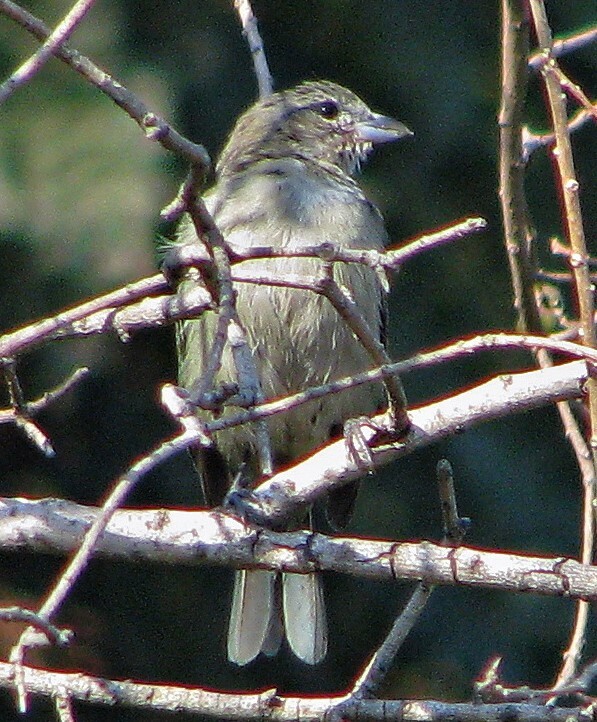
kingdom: Animalia
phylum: Chordata
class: Aves
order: Passeriformes
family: Thraupidae
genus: Thraupis
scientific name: Thraupis sayaca
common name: Sayaca tanager
